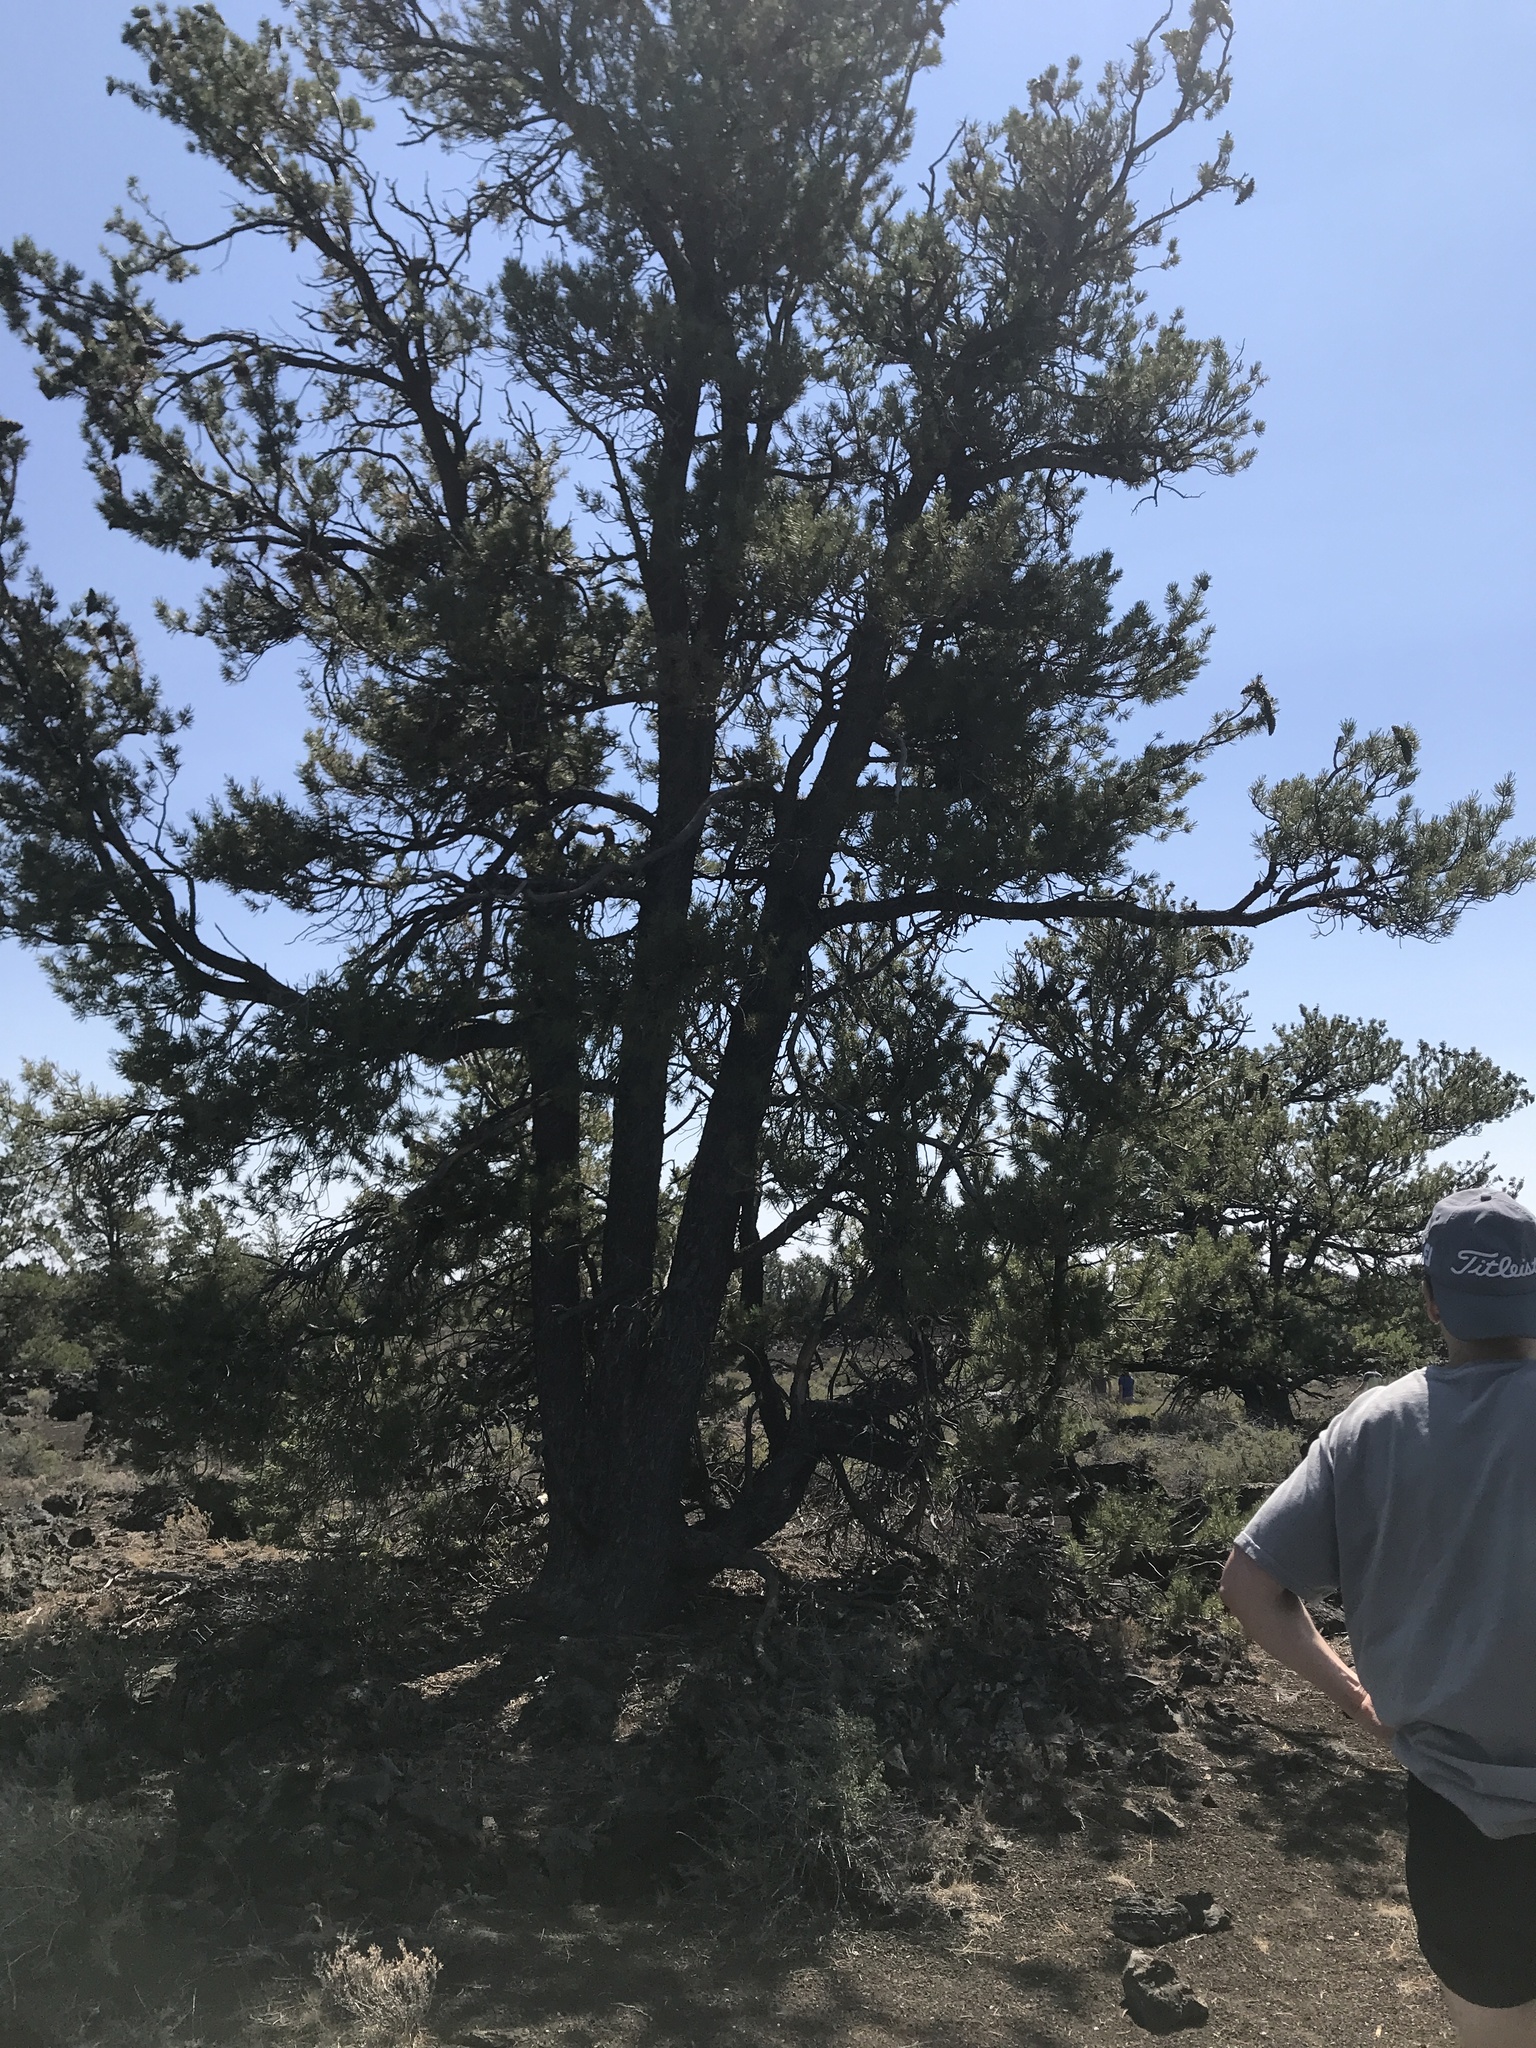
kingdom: Plantae
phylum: Tracheophyta
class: Pinopsida
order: Pinales
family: Pinaceae
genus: Pinus
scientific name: Pinus flexilis
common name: Limber pine
